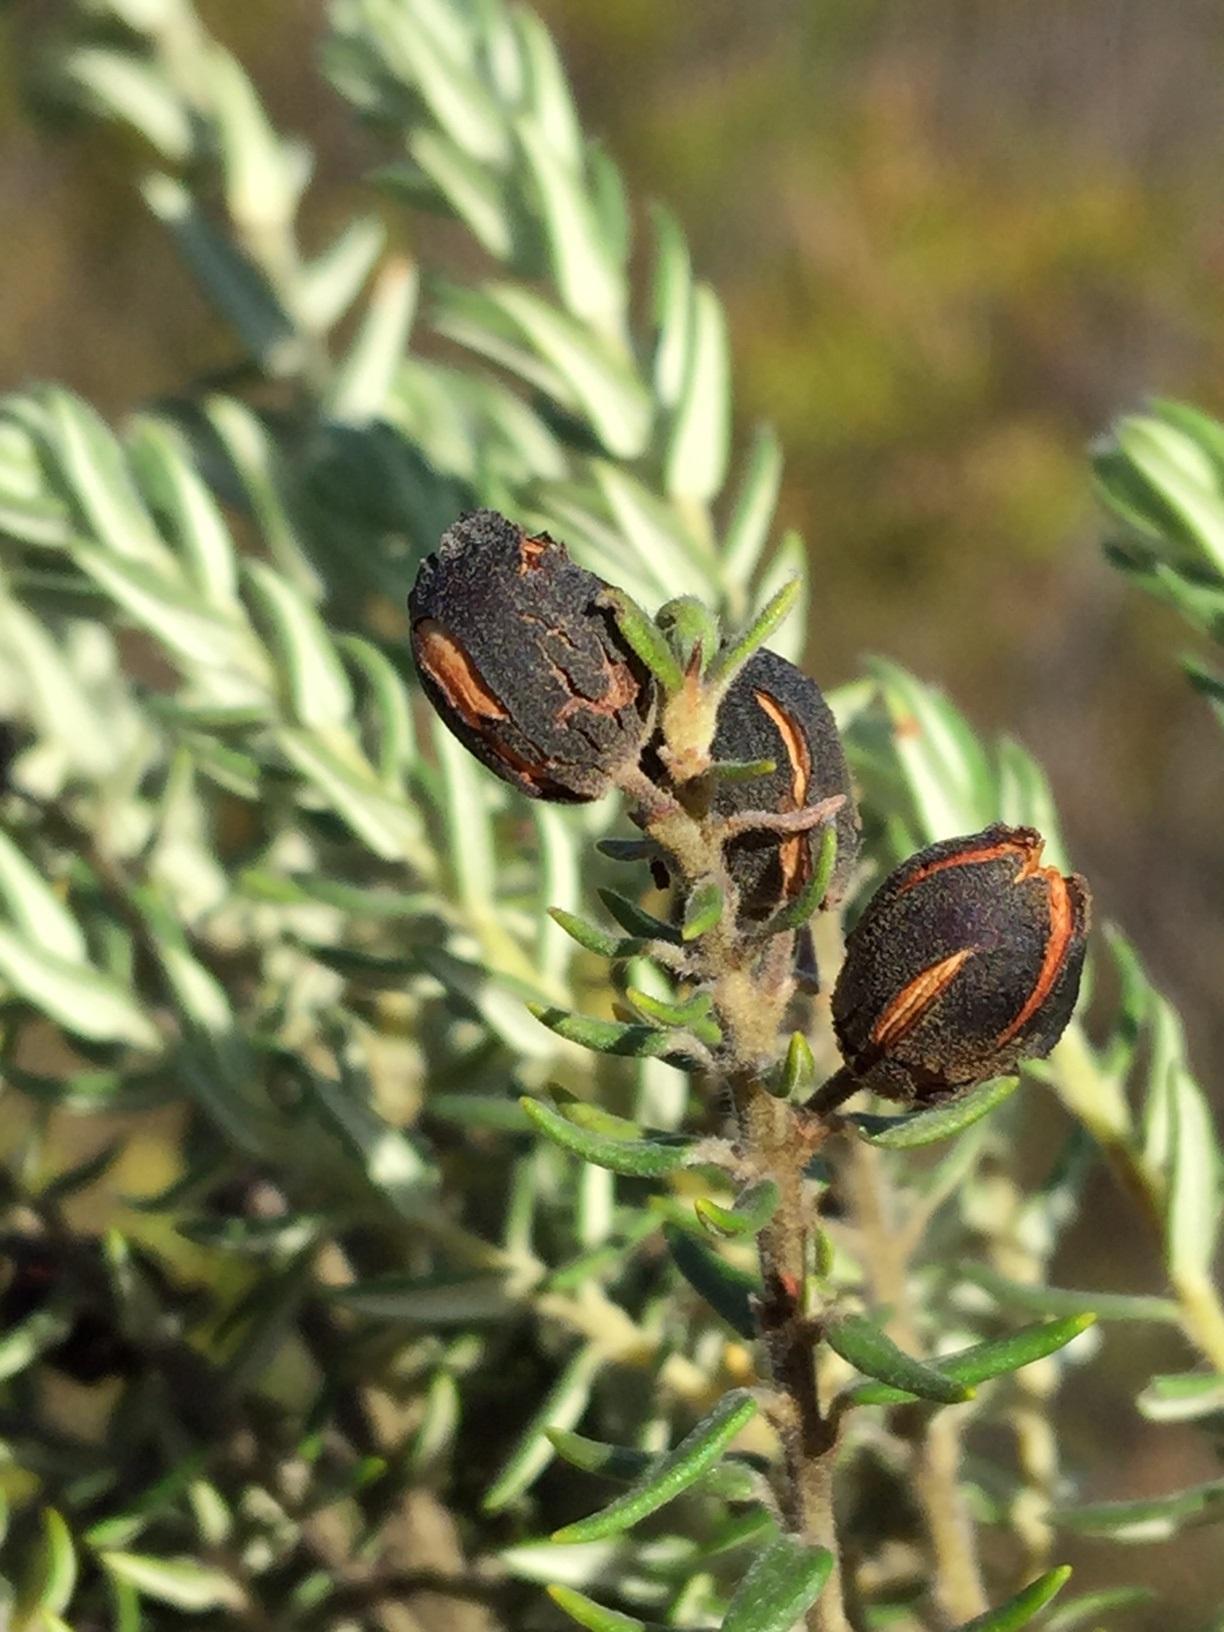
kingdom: Plantae
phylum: Tracheophyta
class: Magnoliopsida
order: Rosales
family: Rhamnaceae
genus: Phylica
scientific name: Phylica pinea
